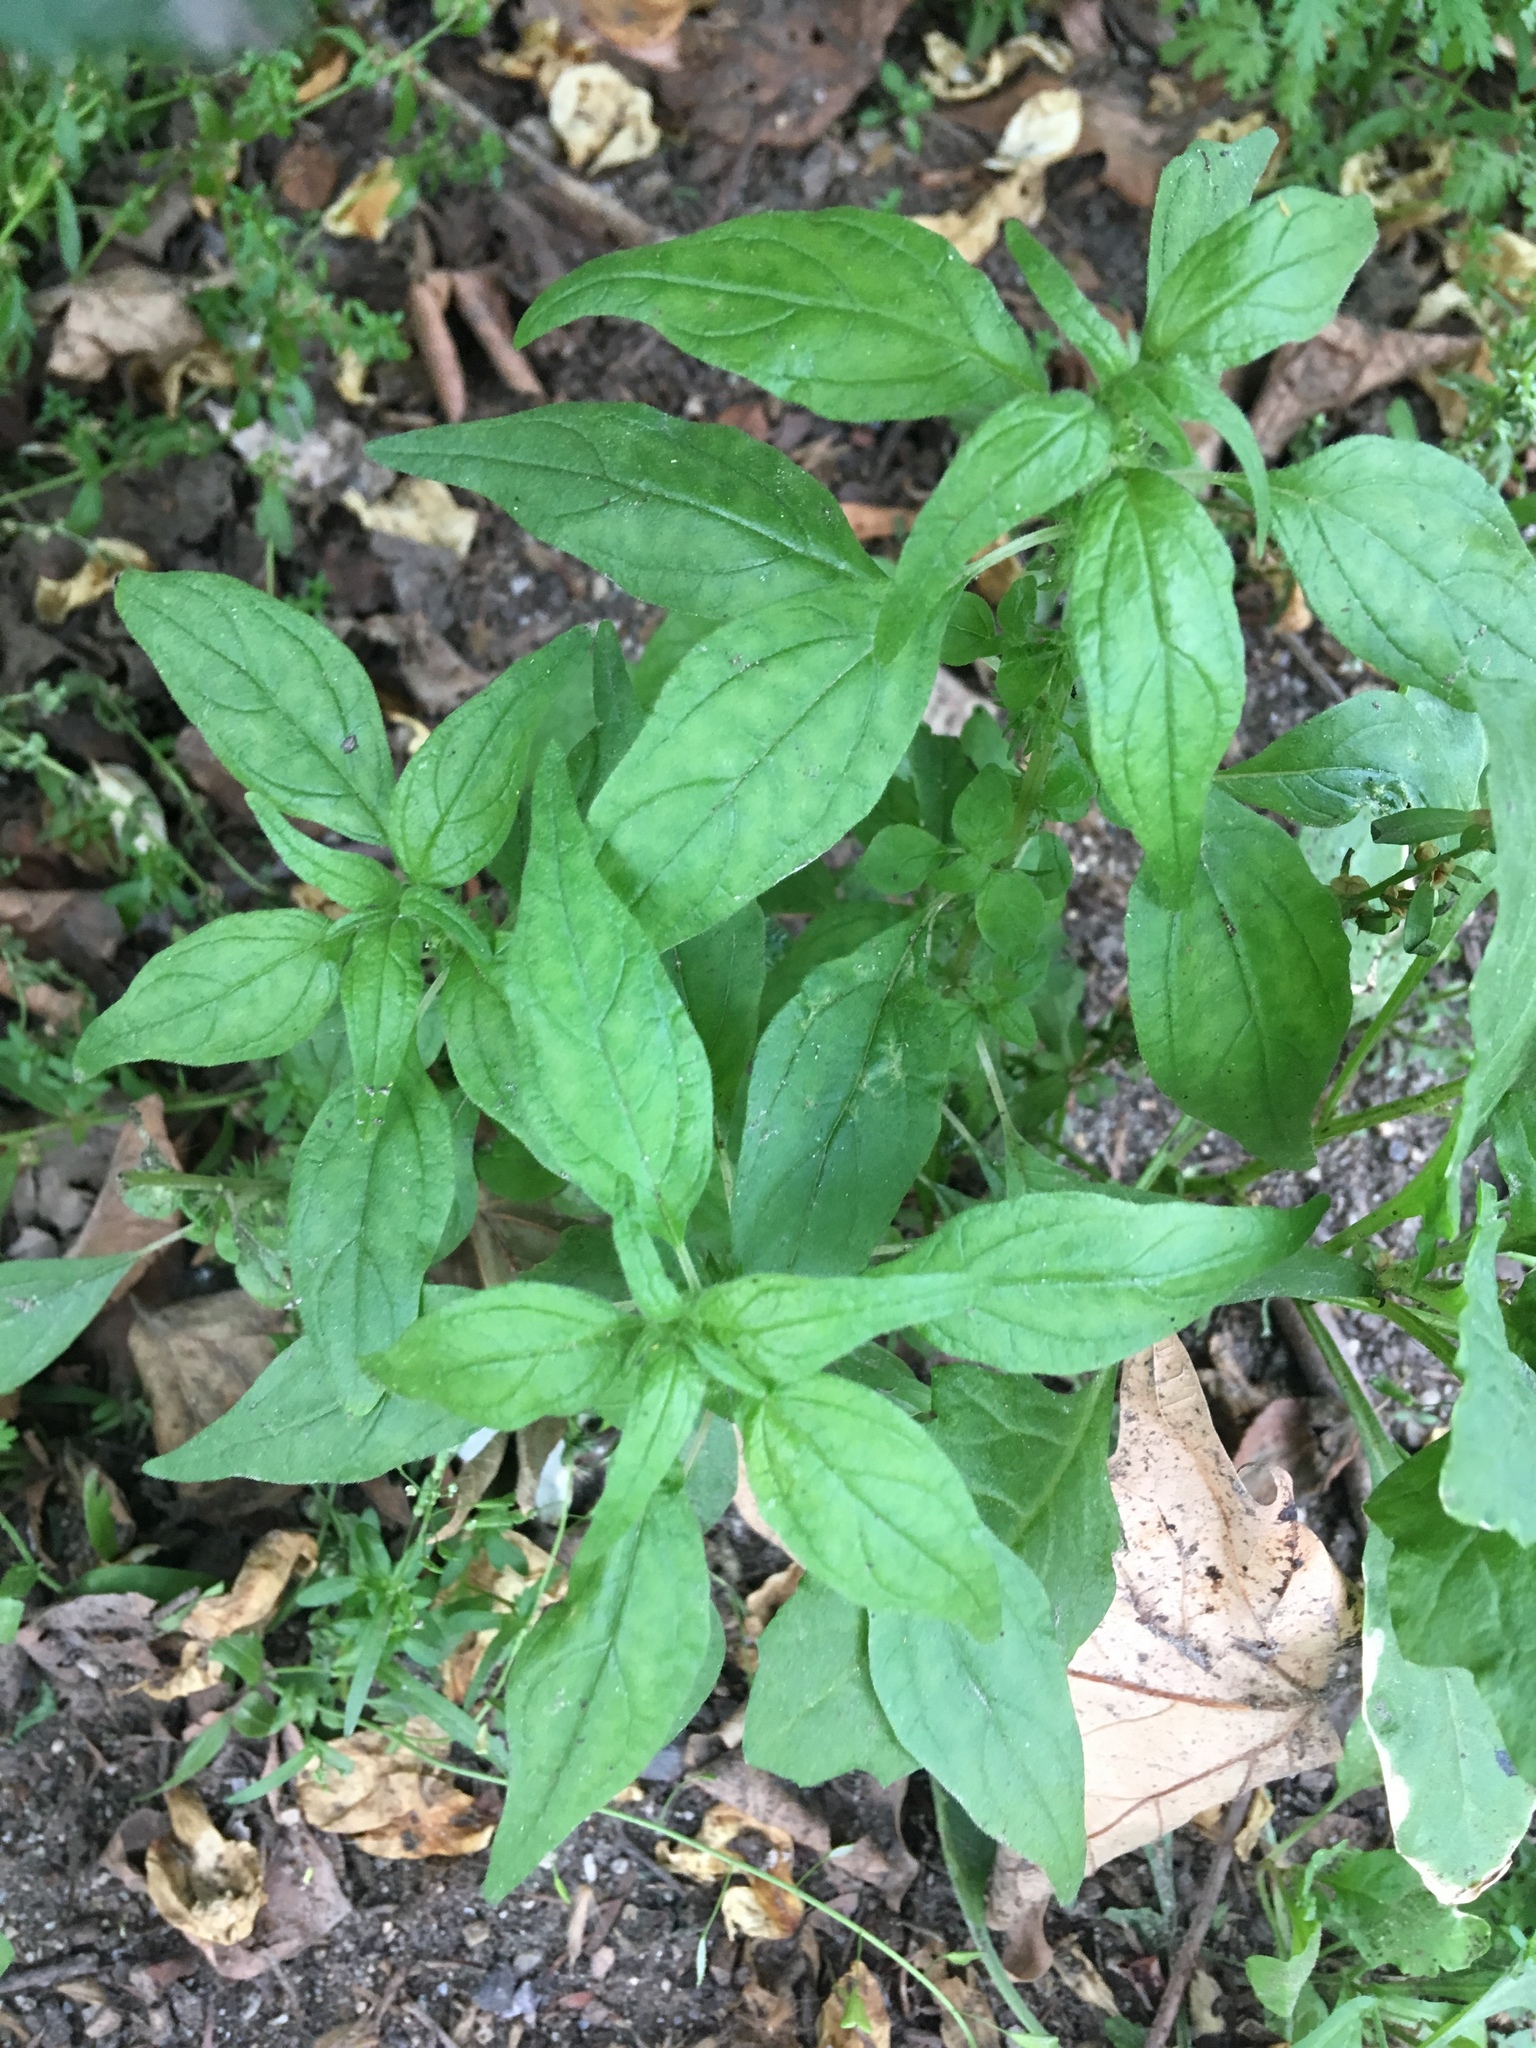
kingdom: Plantae
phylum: Tracheophyta
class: Magnoliopsida
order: Rosales
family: Urticaceae
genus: Parietaria
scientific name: Parietaria pensylvanica
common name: Pennsylvania pellitory
